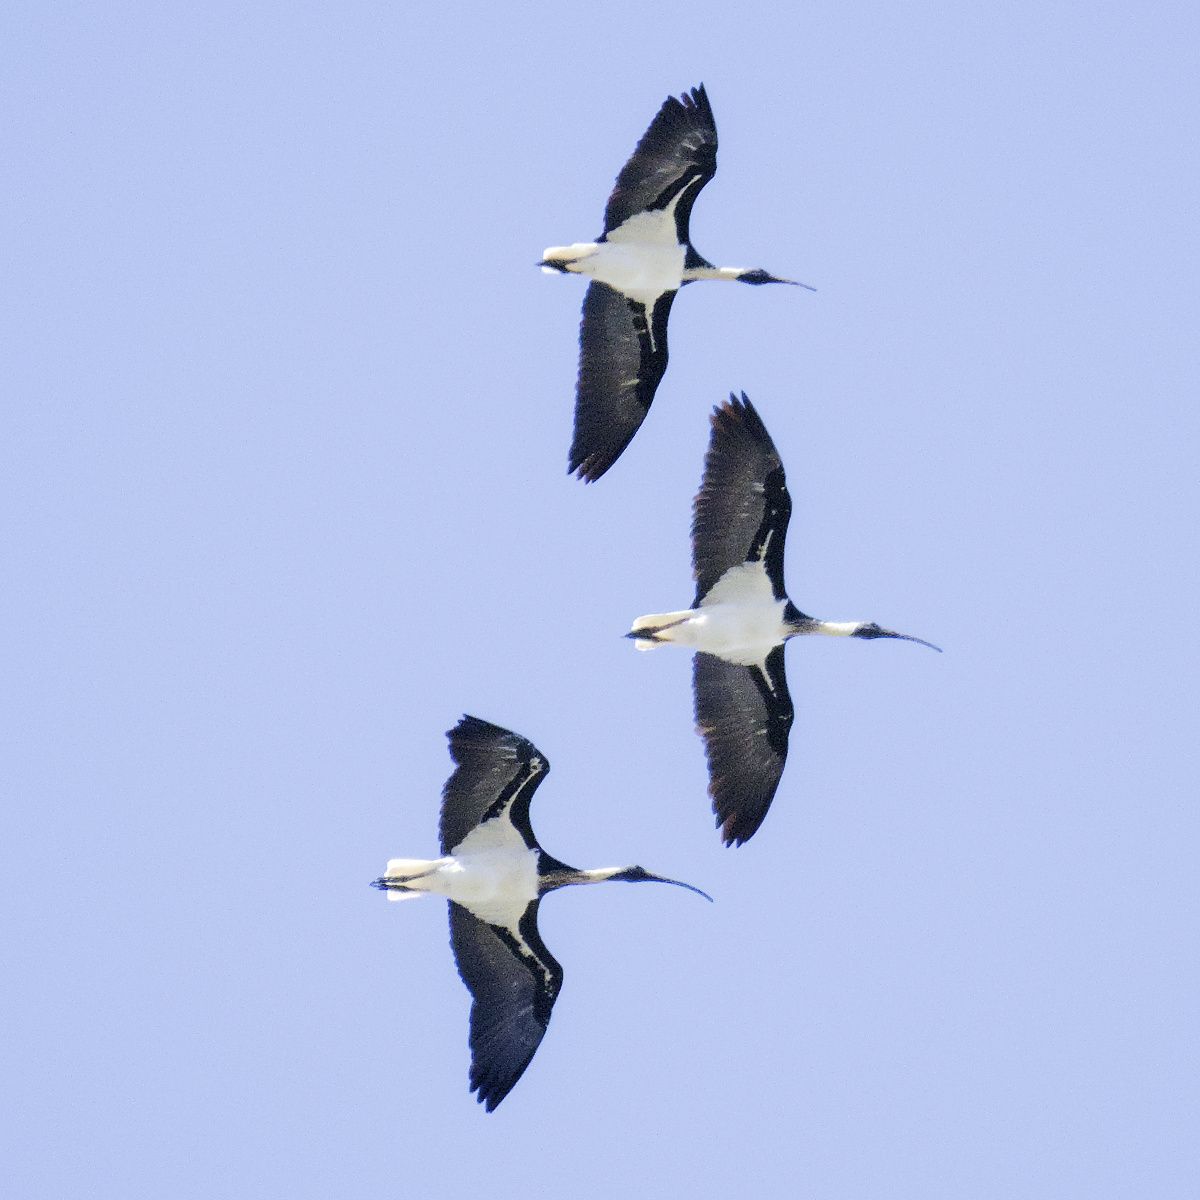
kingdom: Animalia
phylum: Chordata
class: Aves
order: Pelecaniformes
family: Threskiornithidae
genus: Threskiornis
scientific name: Threskiornis spinicollis
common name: Straw-necked ibis
